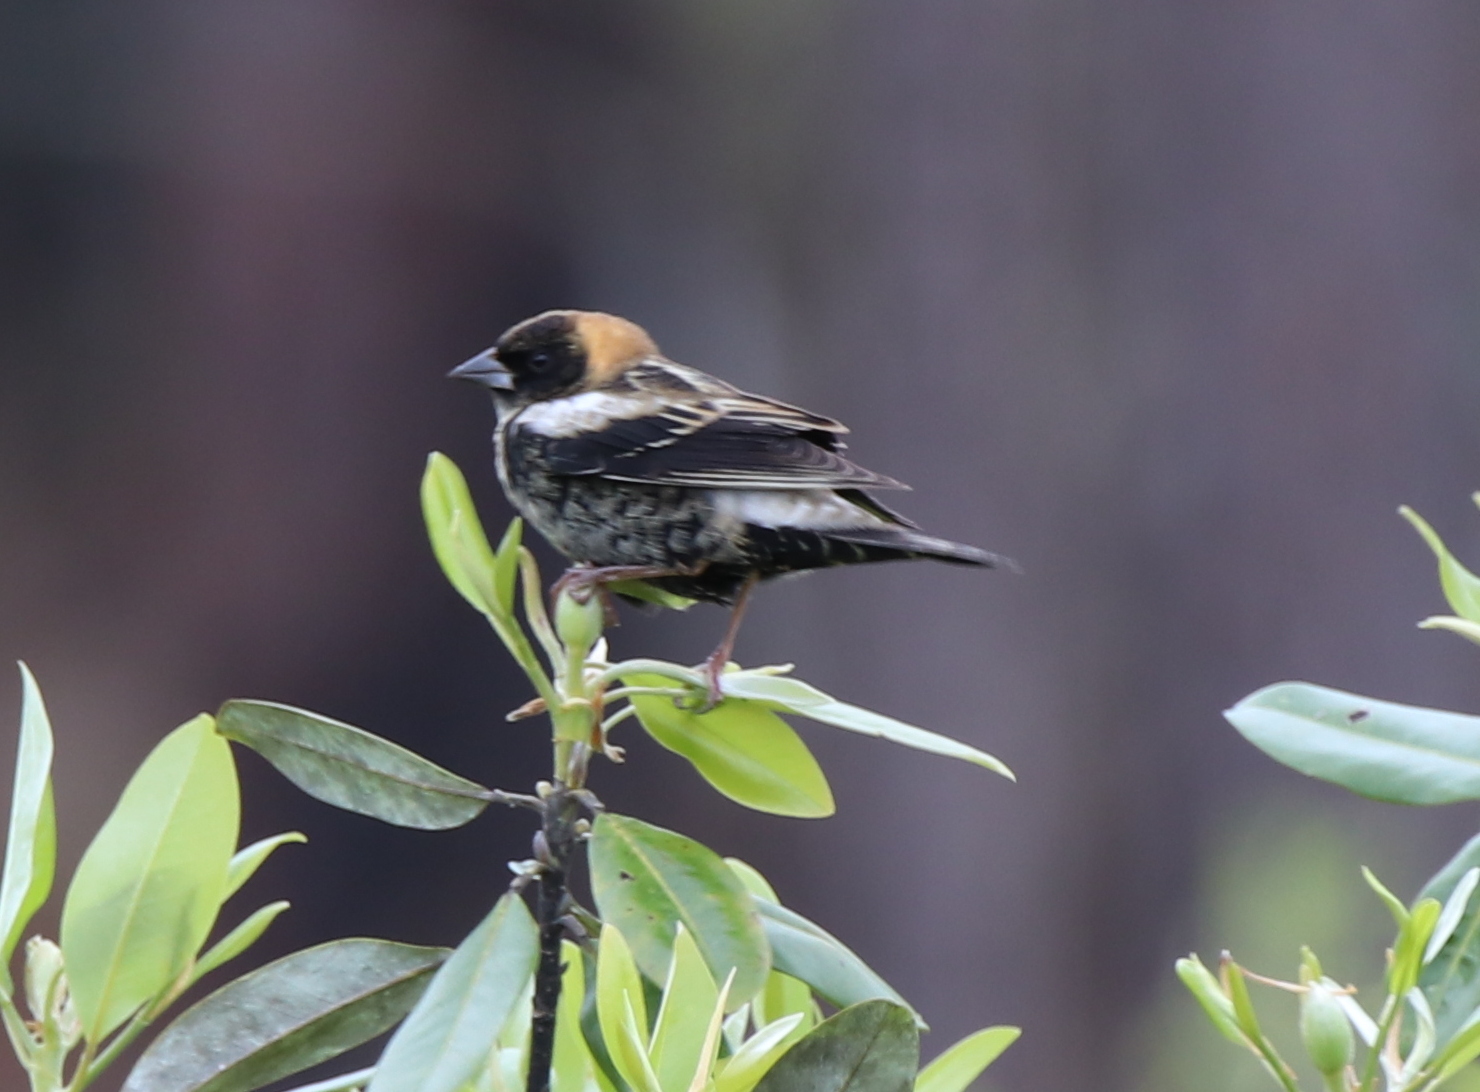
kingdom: Animalia
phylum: Chordata
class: Aves
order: Passeriformes
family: Icteridae
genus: Dolichonyx
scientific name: Dolichonyx oryzivorus
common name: Bobolink
